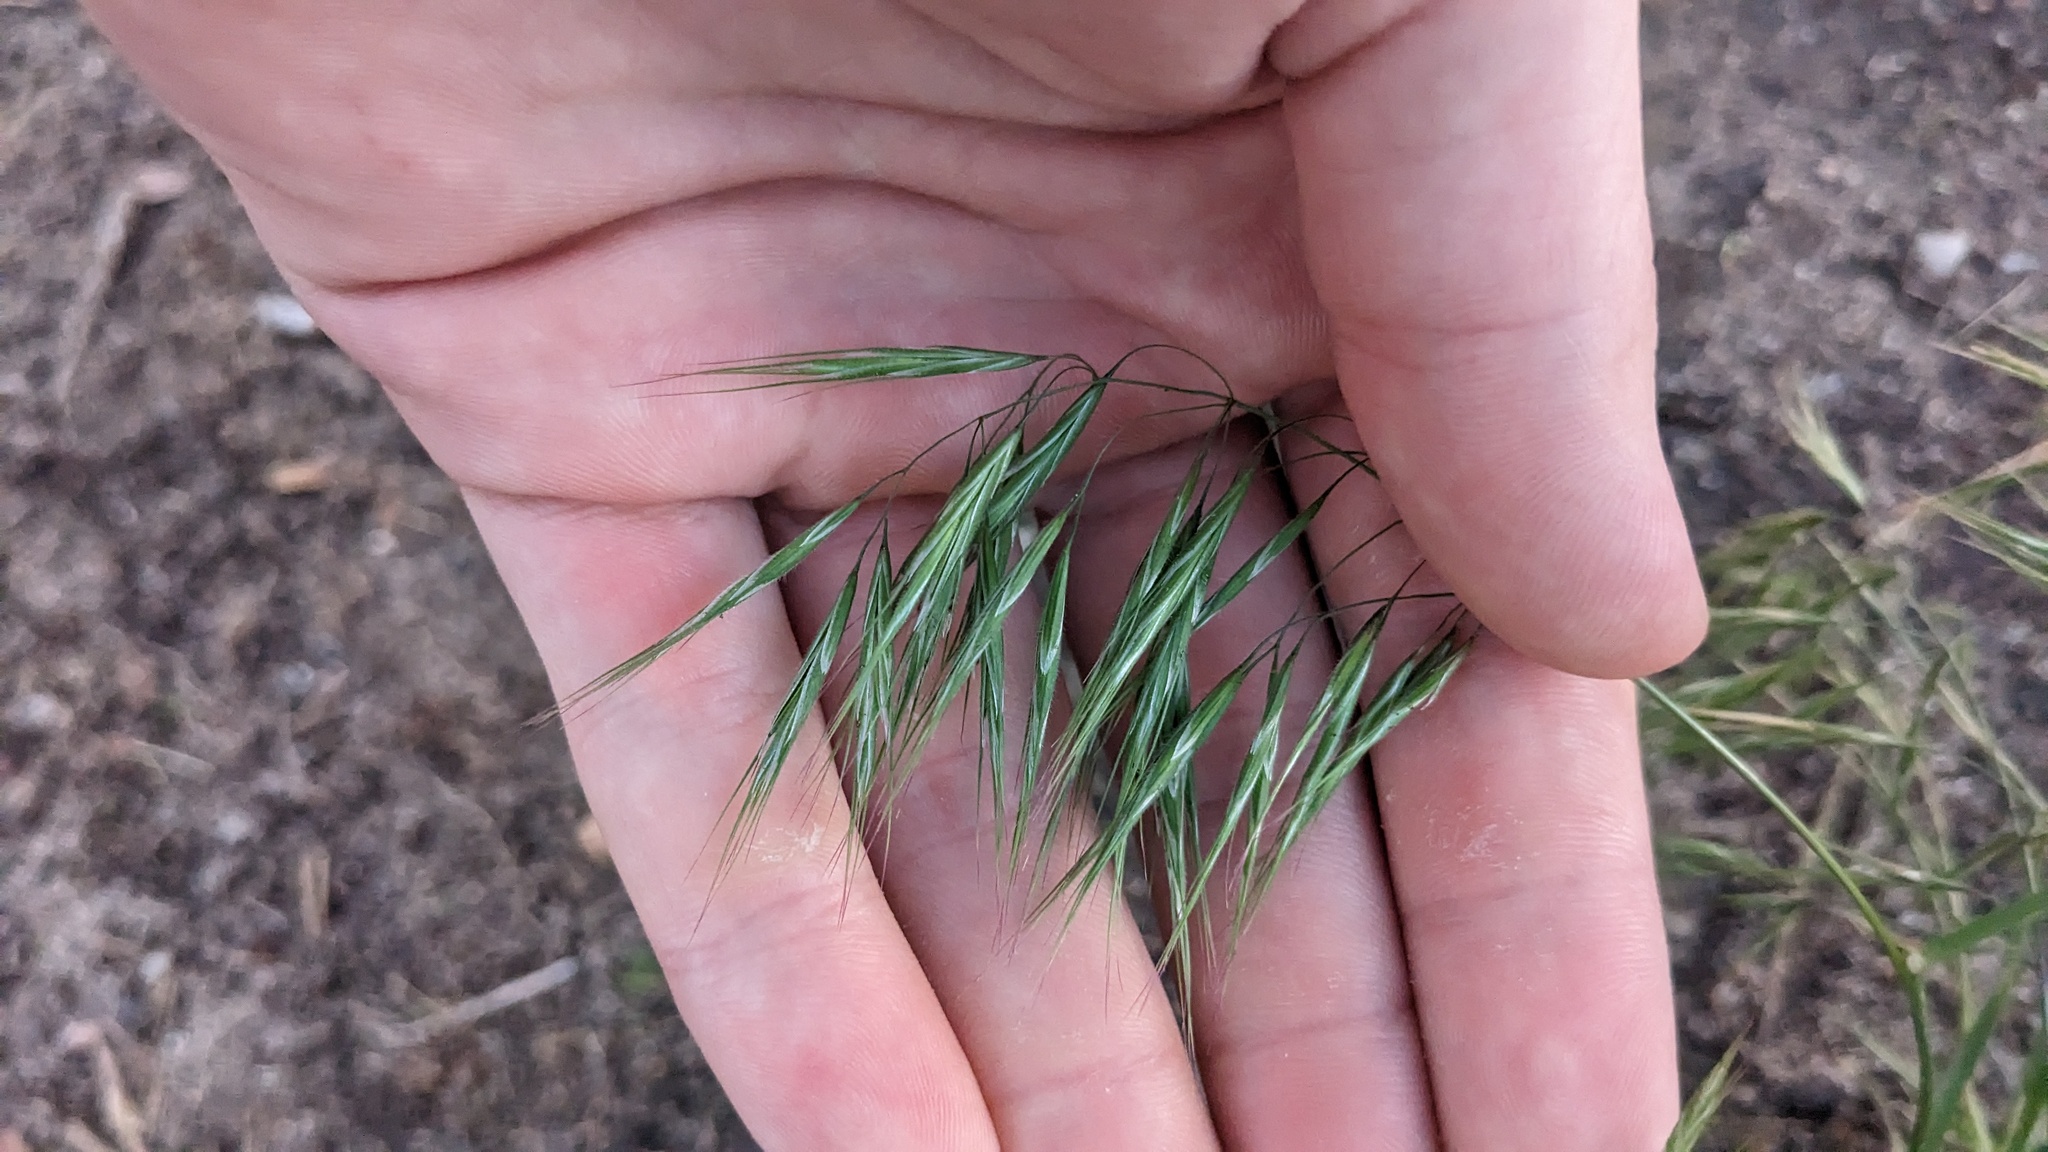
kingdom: Plantae
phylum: Tracheophyta
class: Liliopsida
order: Poales
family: Poaceae
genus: Bromus
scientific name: Bromus tectorum
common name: Cheatgrass
